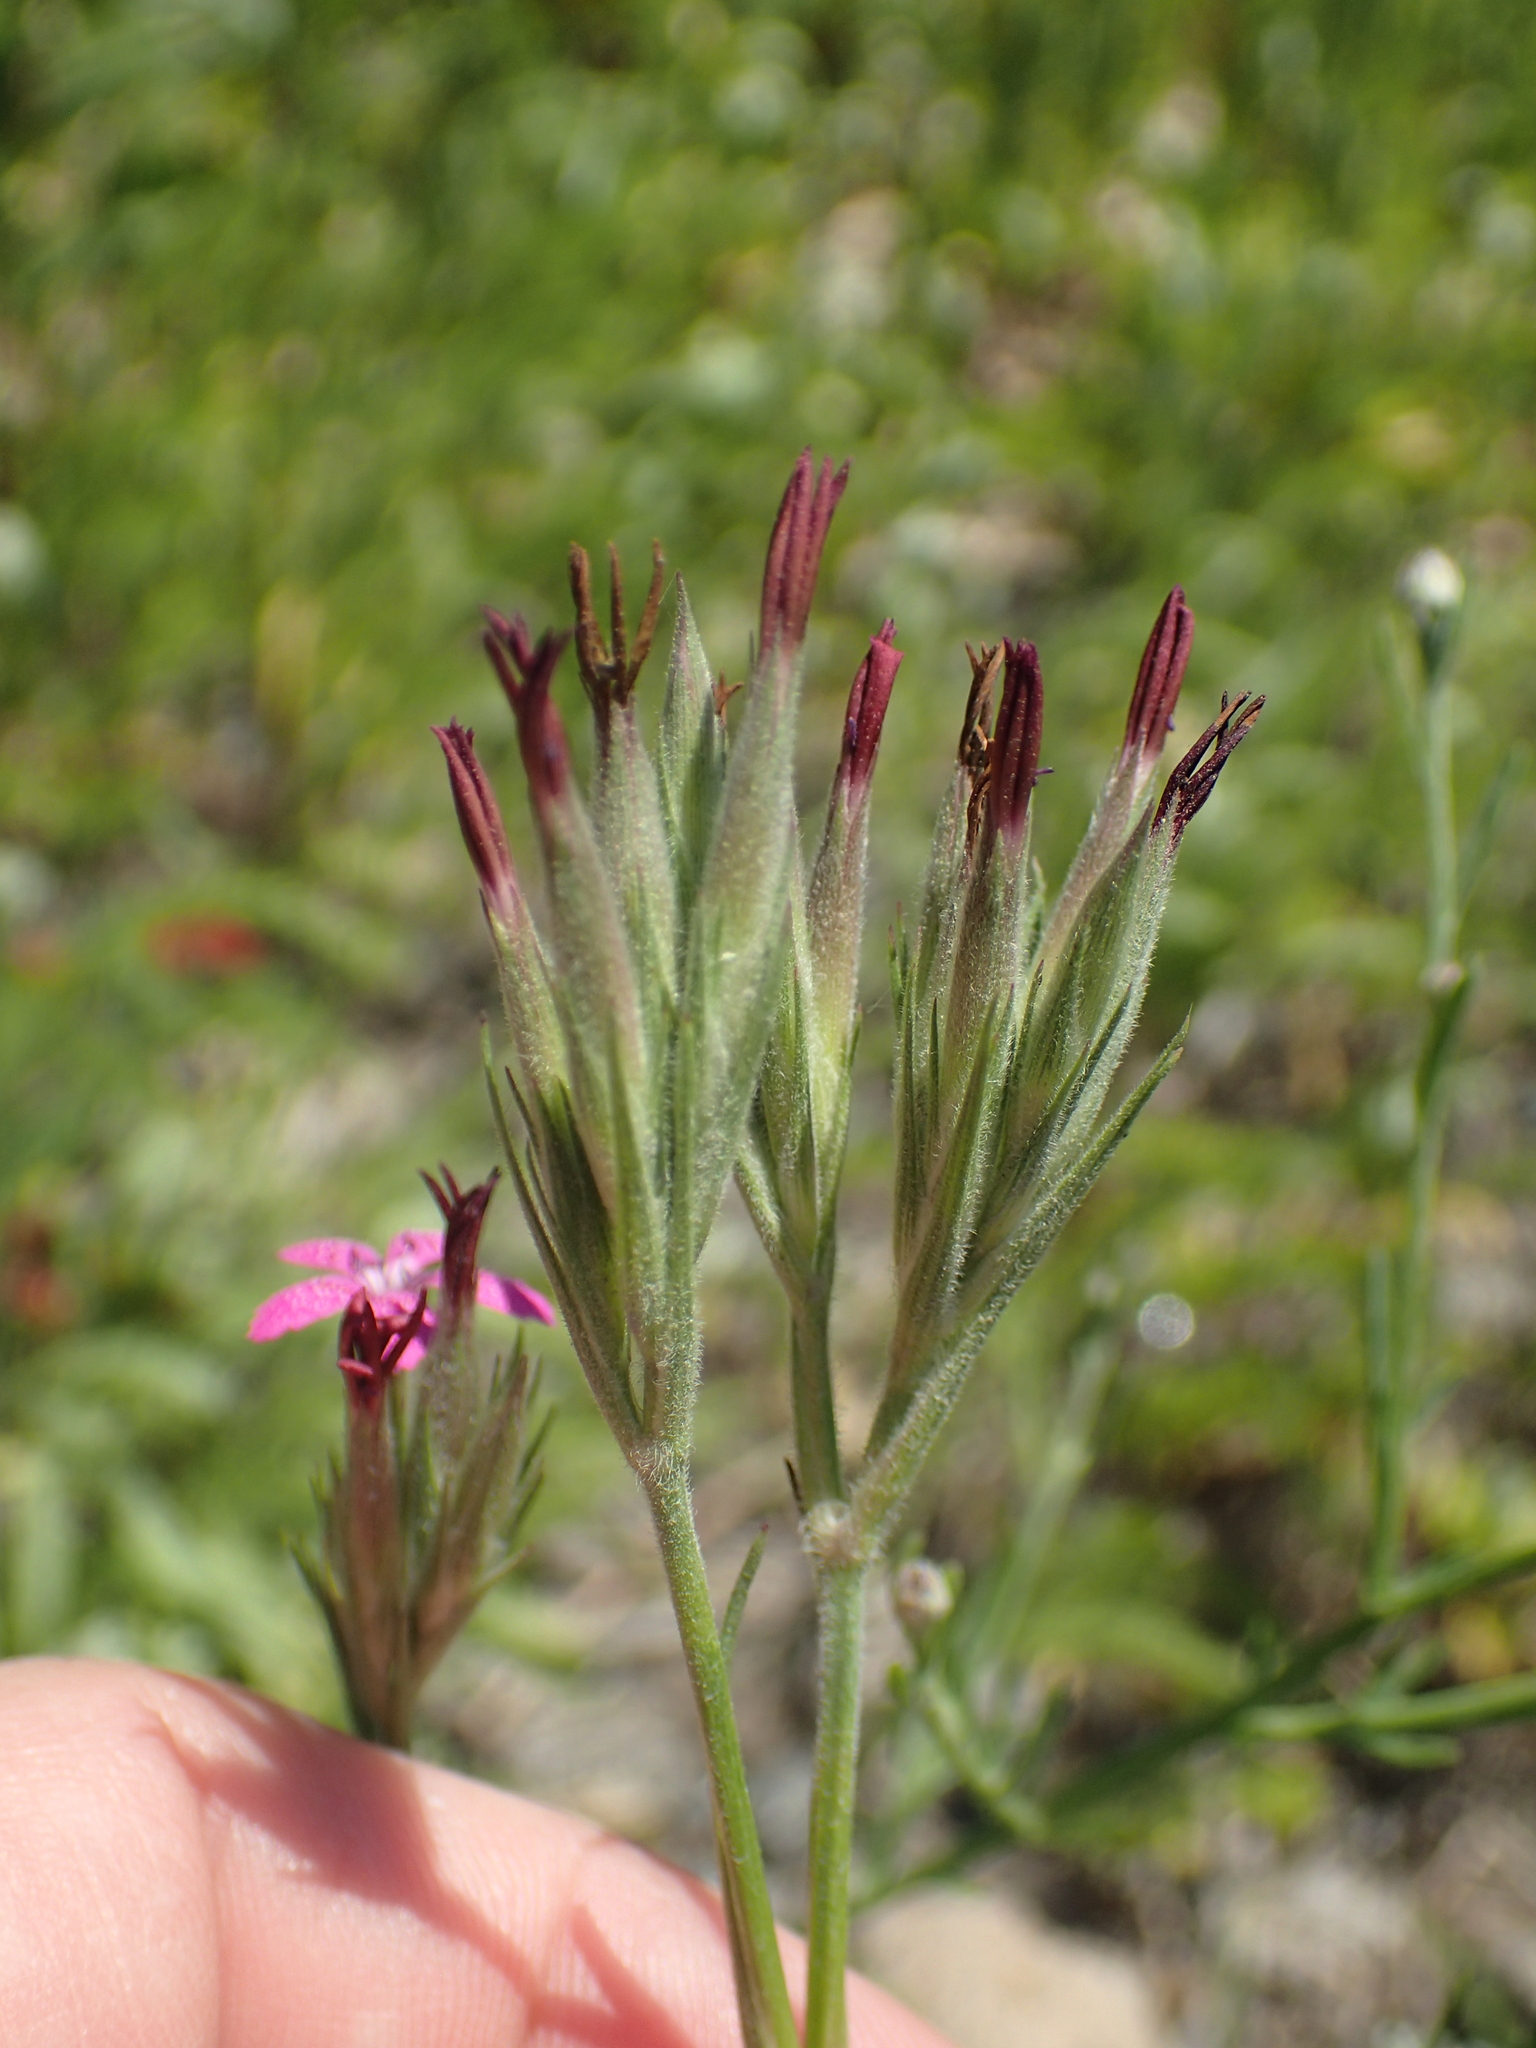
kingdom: Plantae
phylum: Tracheophyta
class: Magnoliopsida
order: Caryophyllales
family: Caryophyllaceae
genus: Dianthus
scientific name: Dianthus armeria
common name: Deptford pink
